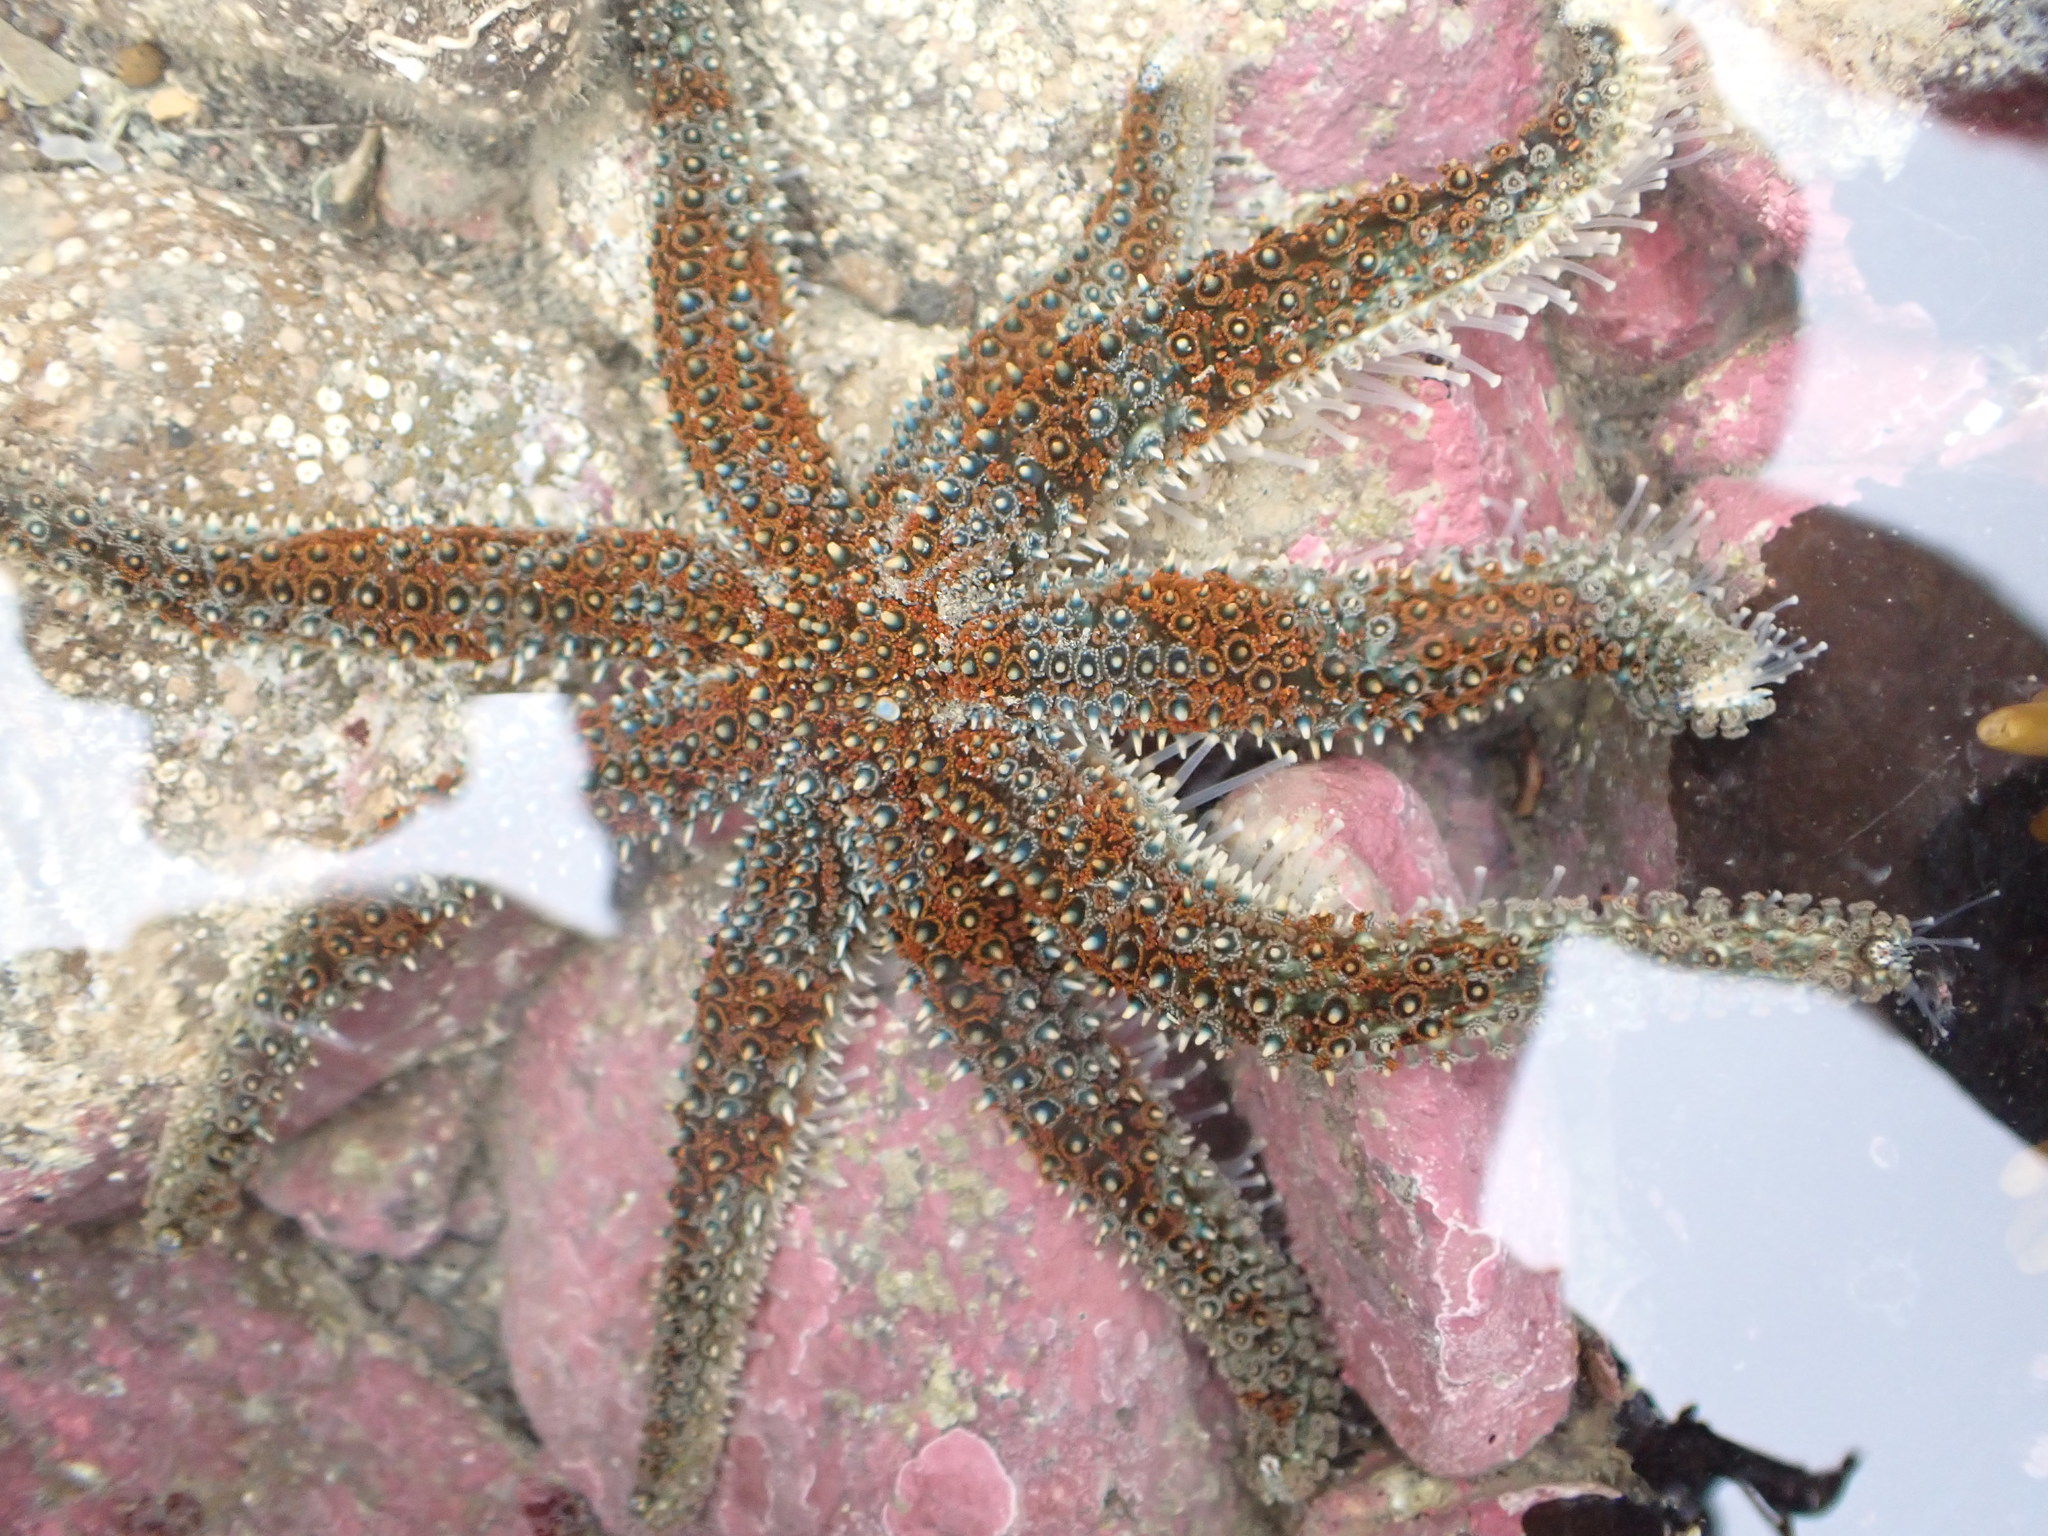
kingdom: Animalia
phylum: Echinodermata
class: Asteroidea
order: Forcipulatida
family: Asteriidae
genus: Coscinasterias
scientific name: Coscinasterias muricata
